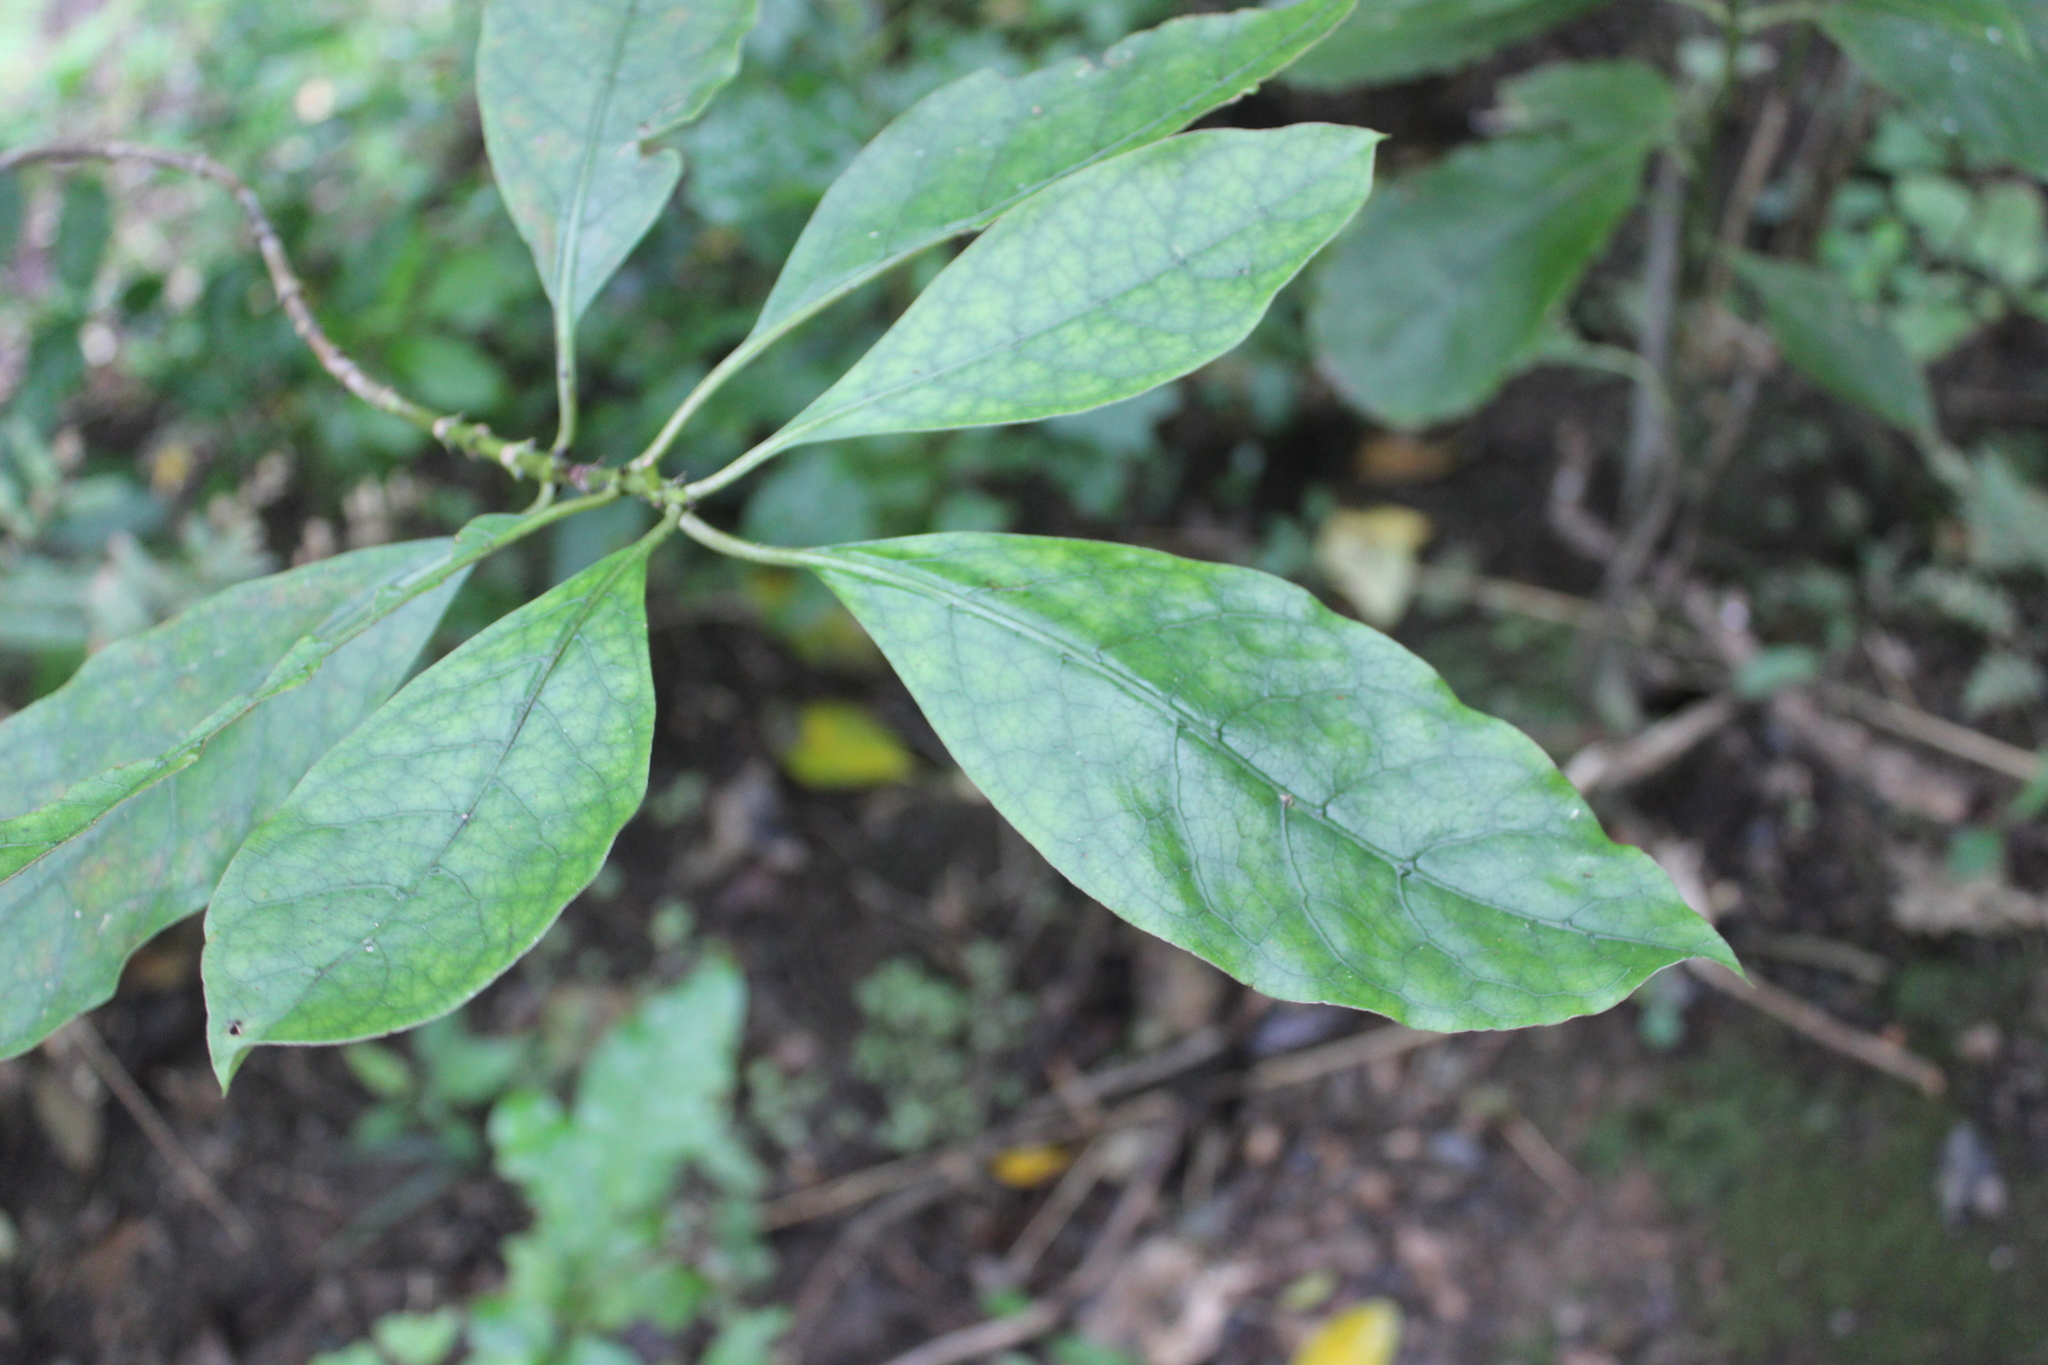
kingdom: Plantae
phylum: Tracheophyta
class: Magnoliopsida
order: Gentianales
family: Rubiaceae
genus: Coprosma
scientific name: Coprosma autumnalis
